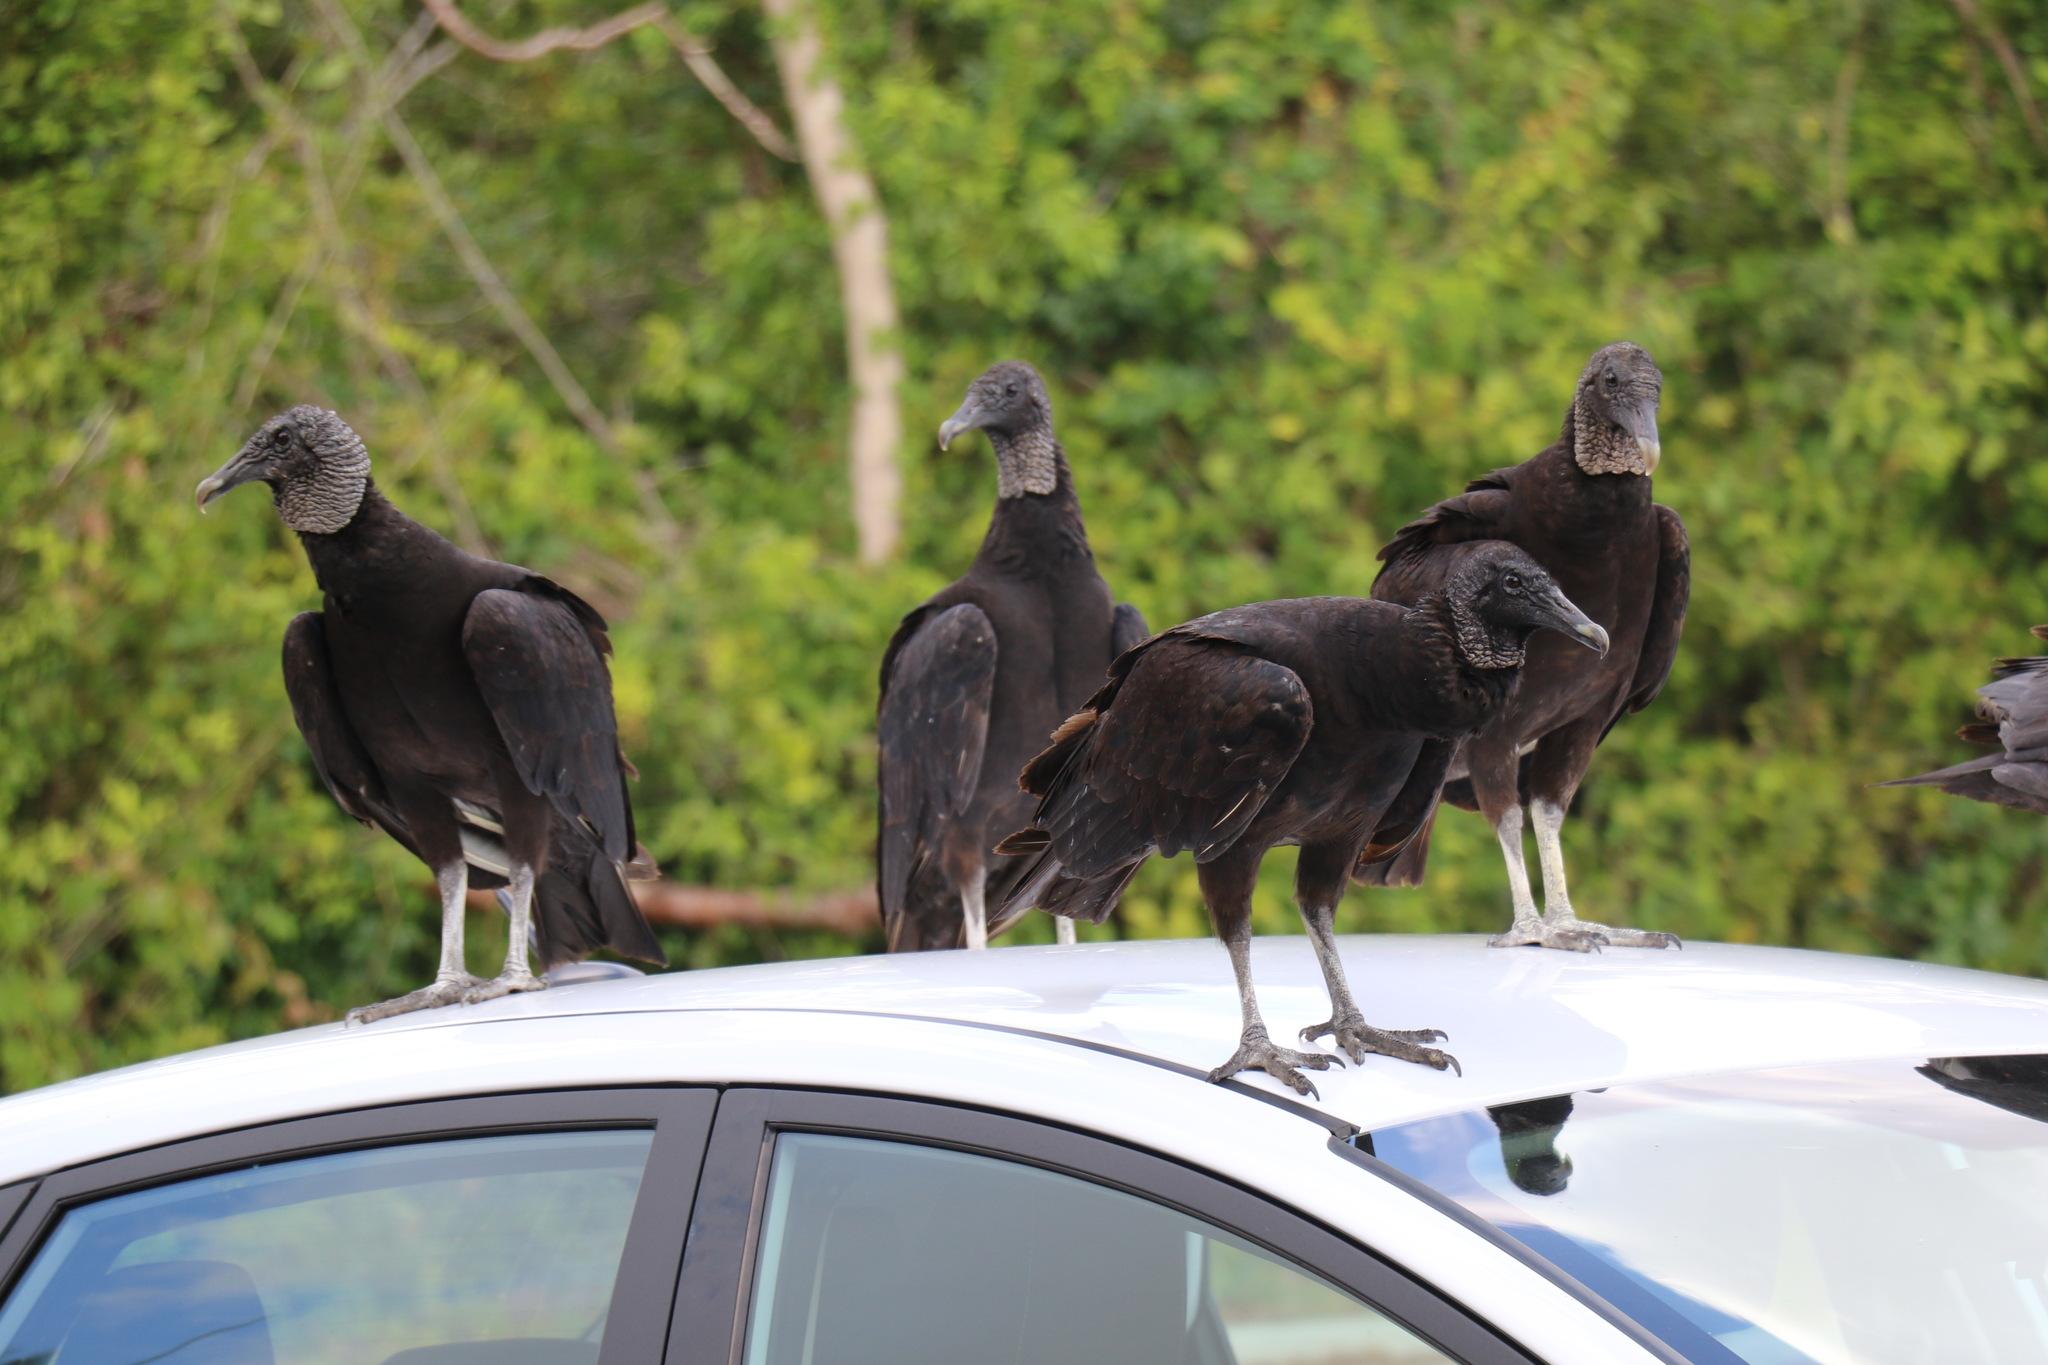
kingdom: Animalia
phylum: Chordata
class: Aves
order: Accipitriformes
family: Cathartidae
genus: Coragyps
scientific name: Coragyps atratus
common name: Black vulture
